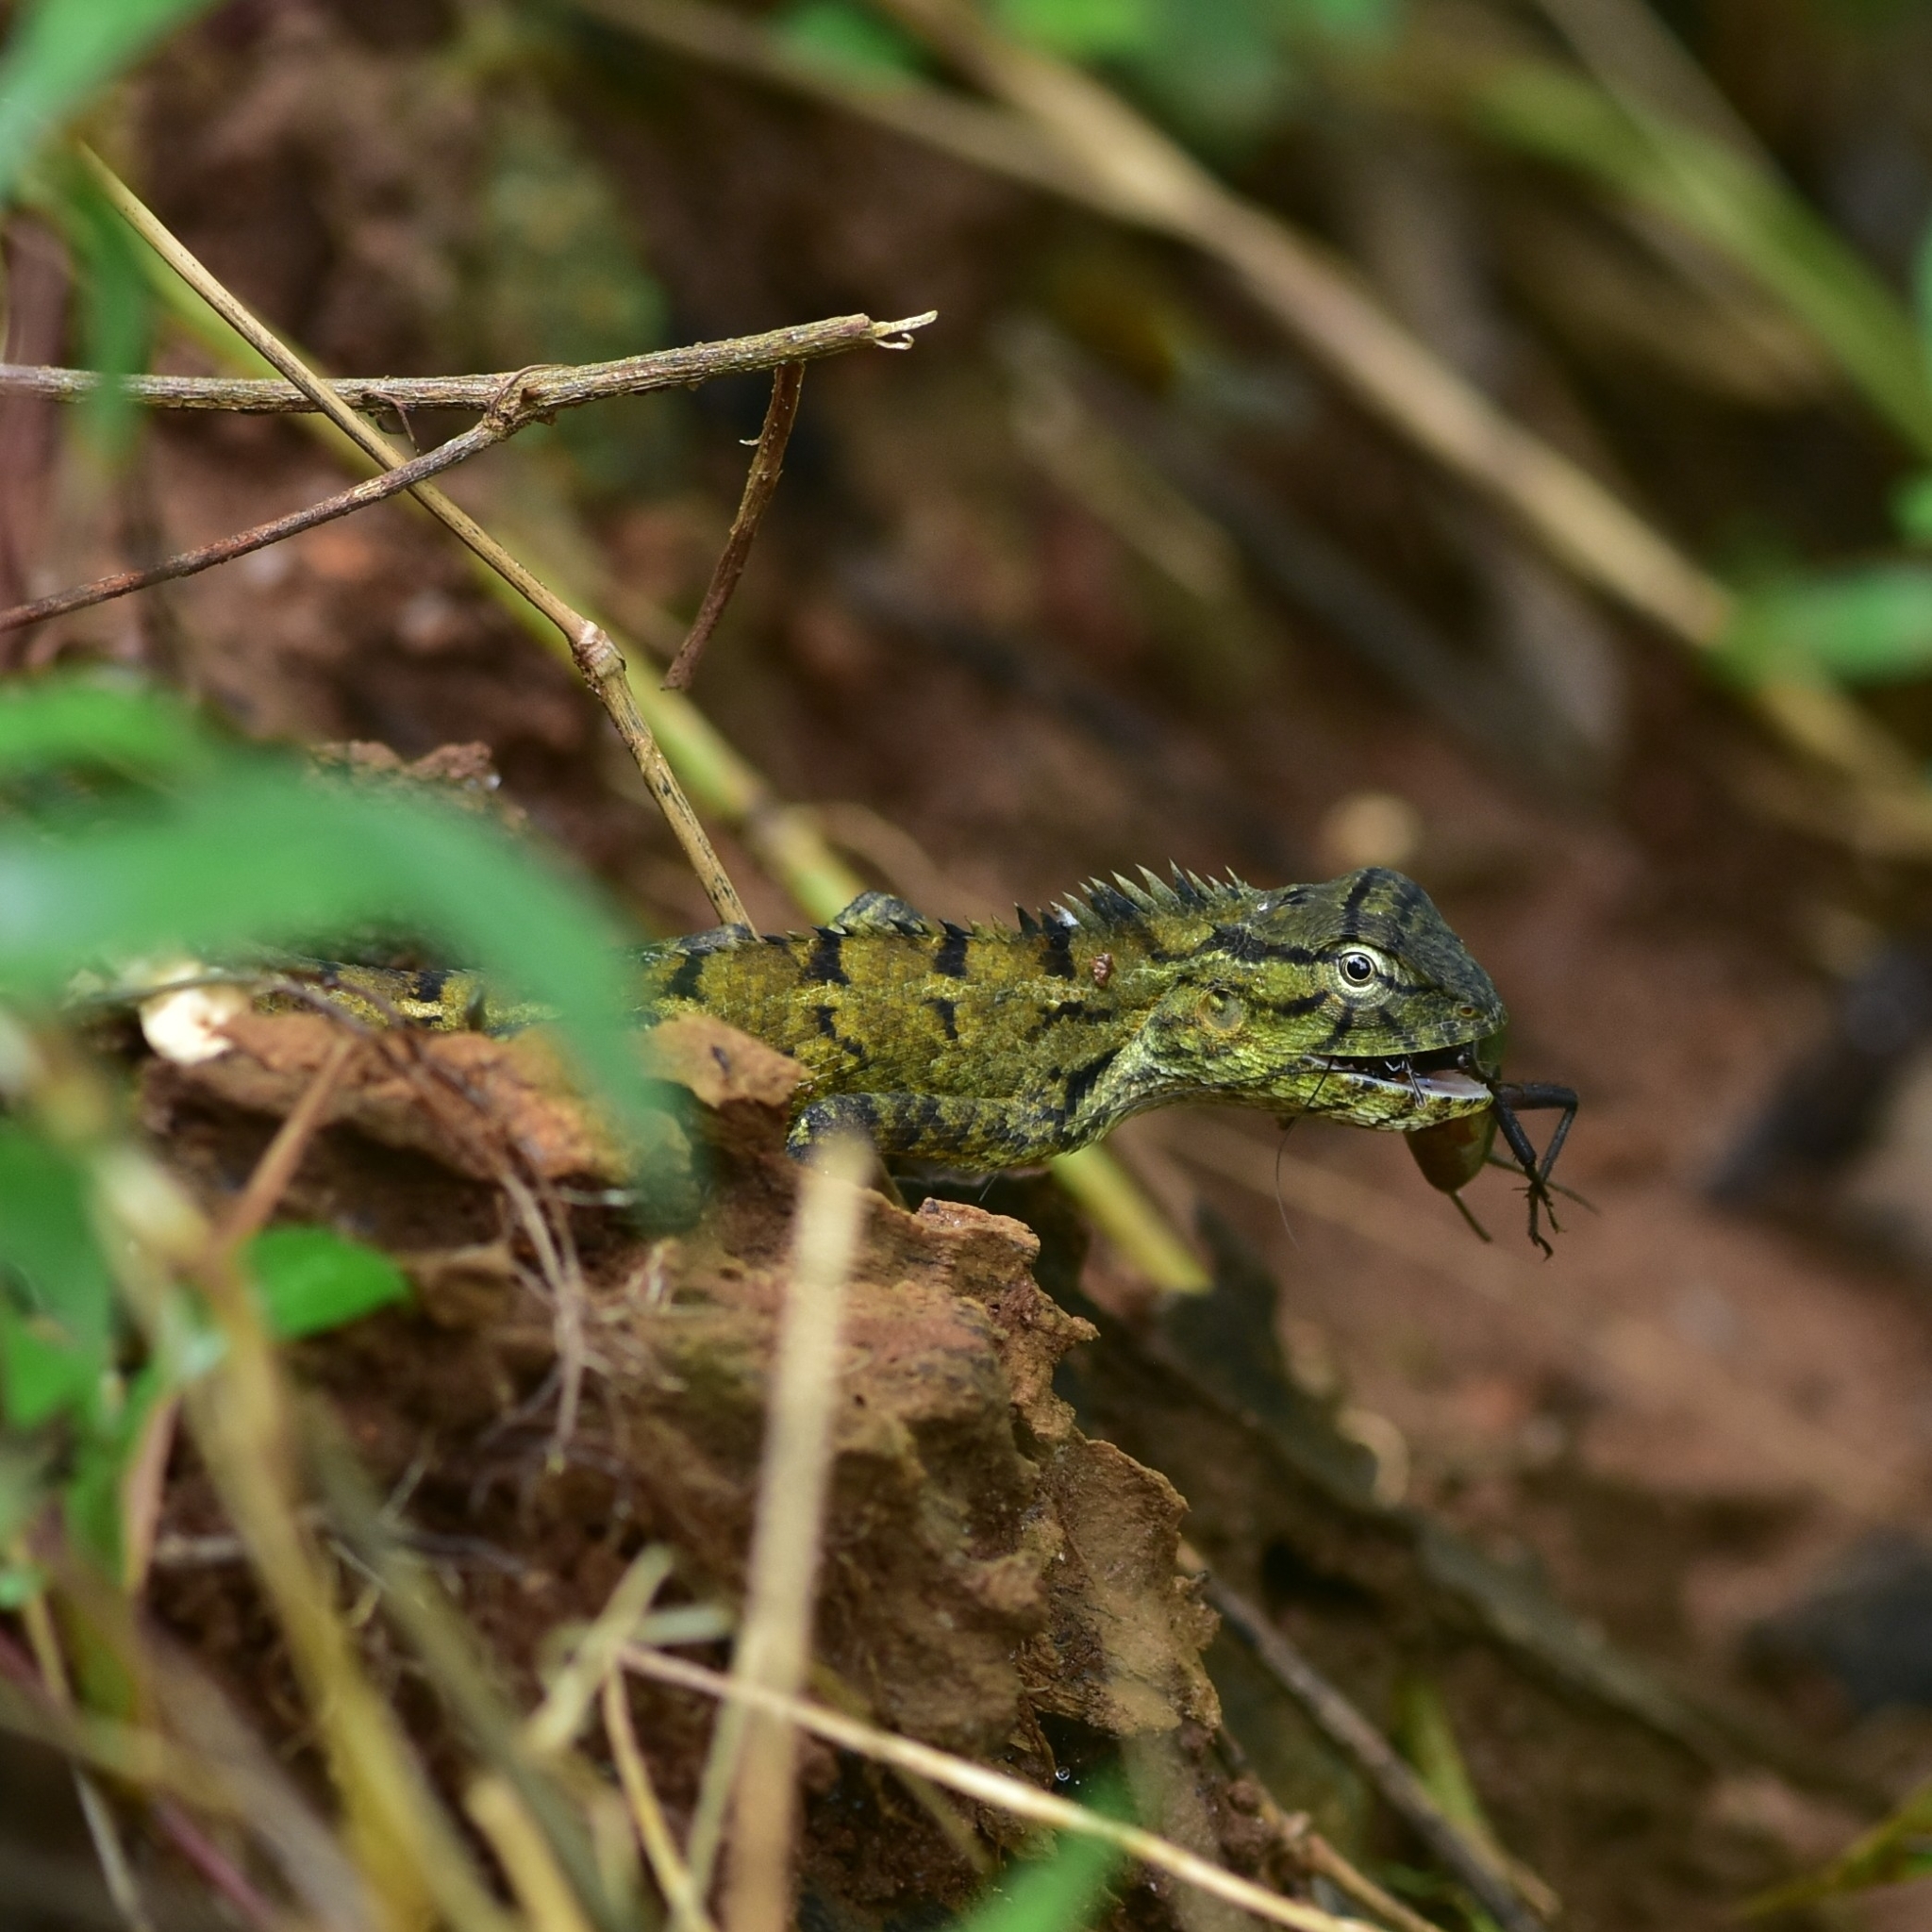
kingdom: Animalia
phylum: Chordata
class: Squamata
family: Agamidae
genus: Calotes
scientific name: Calotes versicolor
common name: Oriental garden lizard
